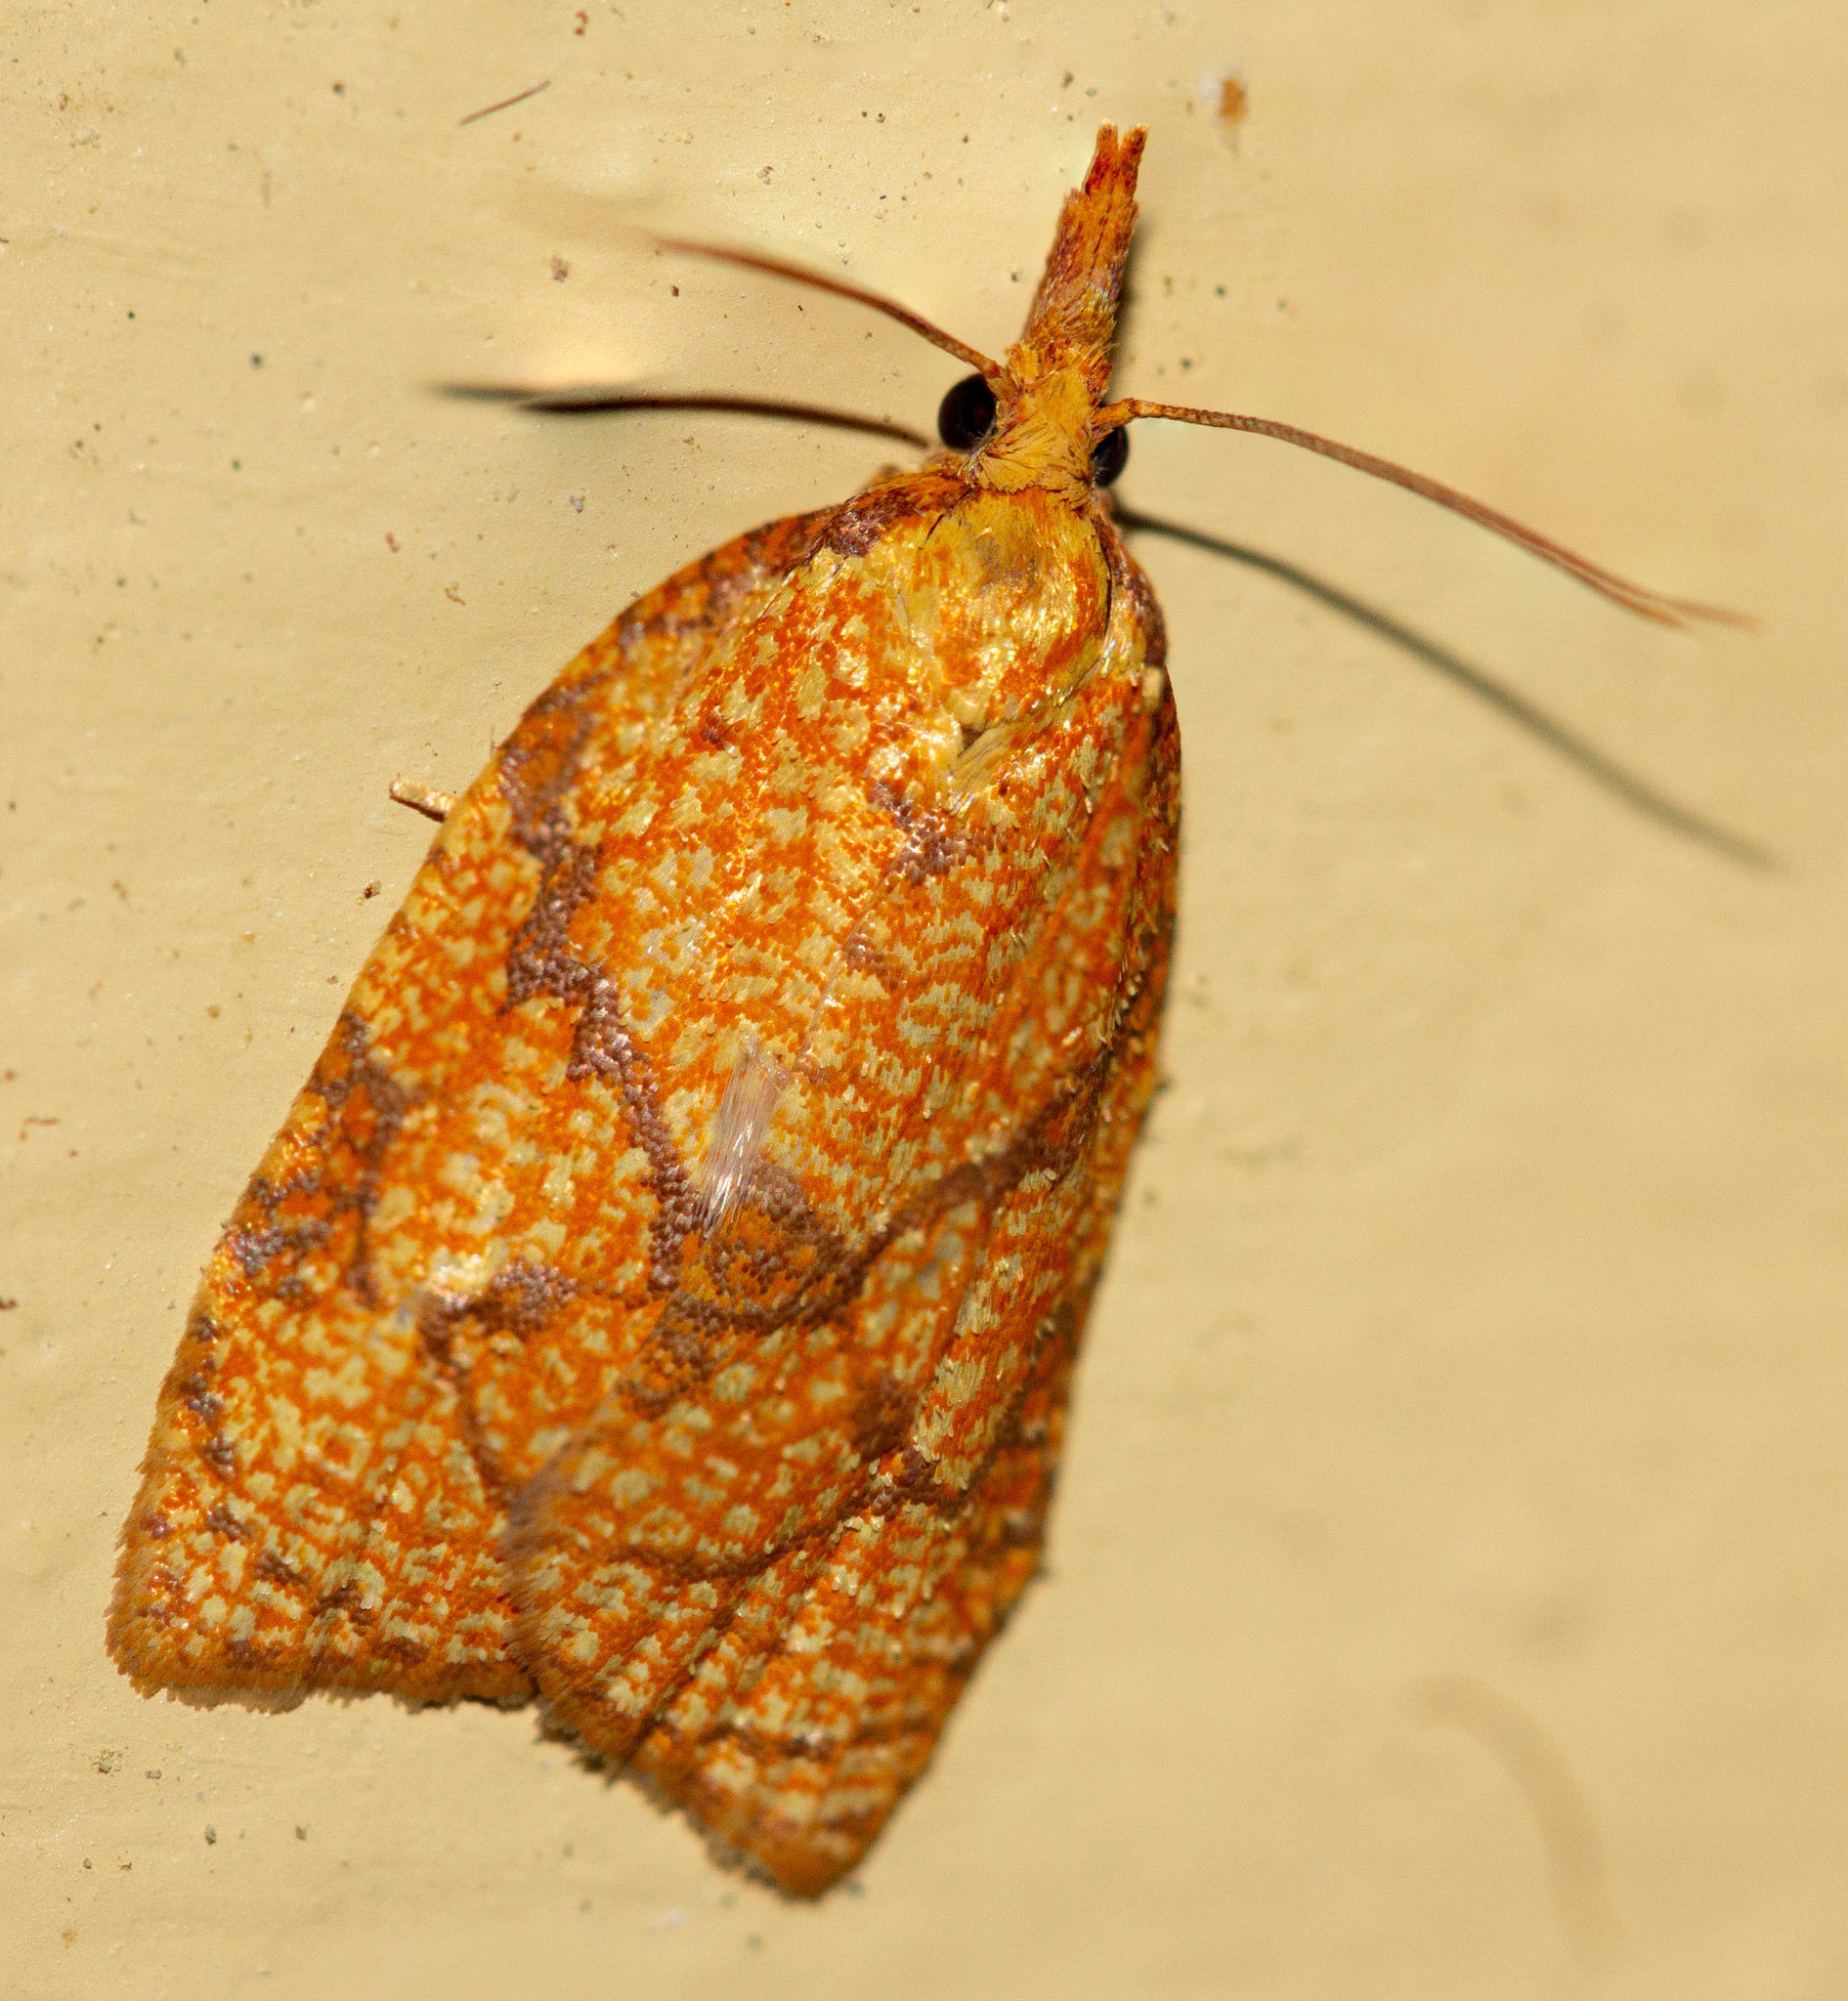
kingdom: Animalia
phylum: Arthropoda
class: Insecta
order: Lepidoptera
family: Tortricidae
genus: Cenopis
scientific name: Cenopis reticulatana
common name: Reticulated fruitworm moth
